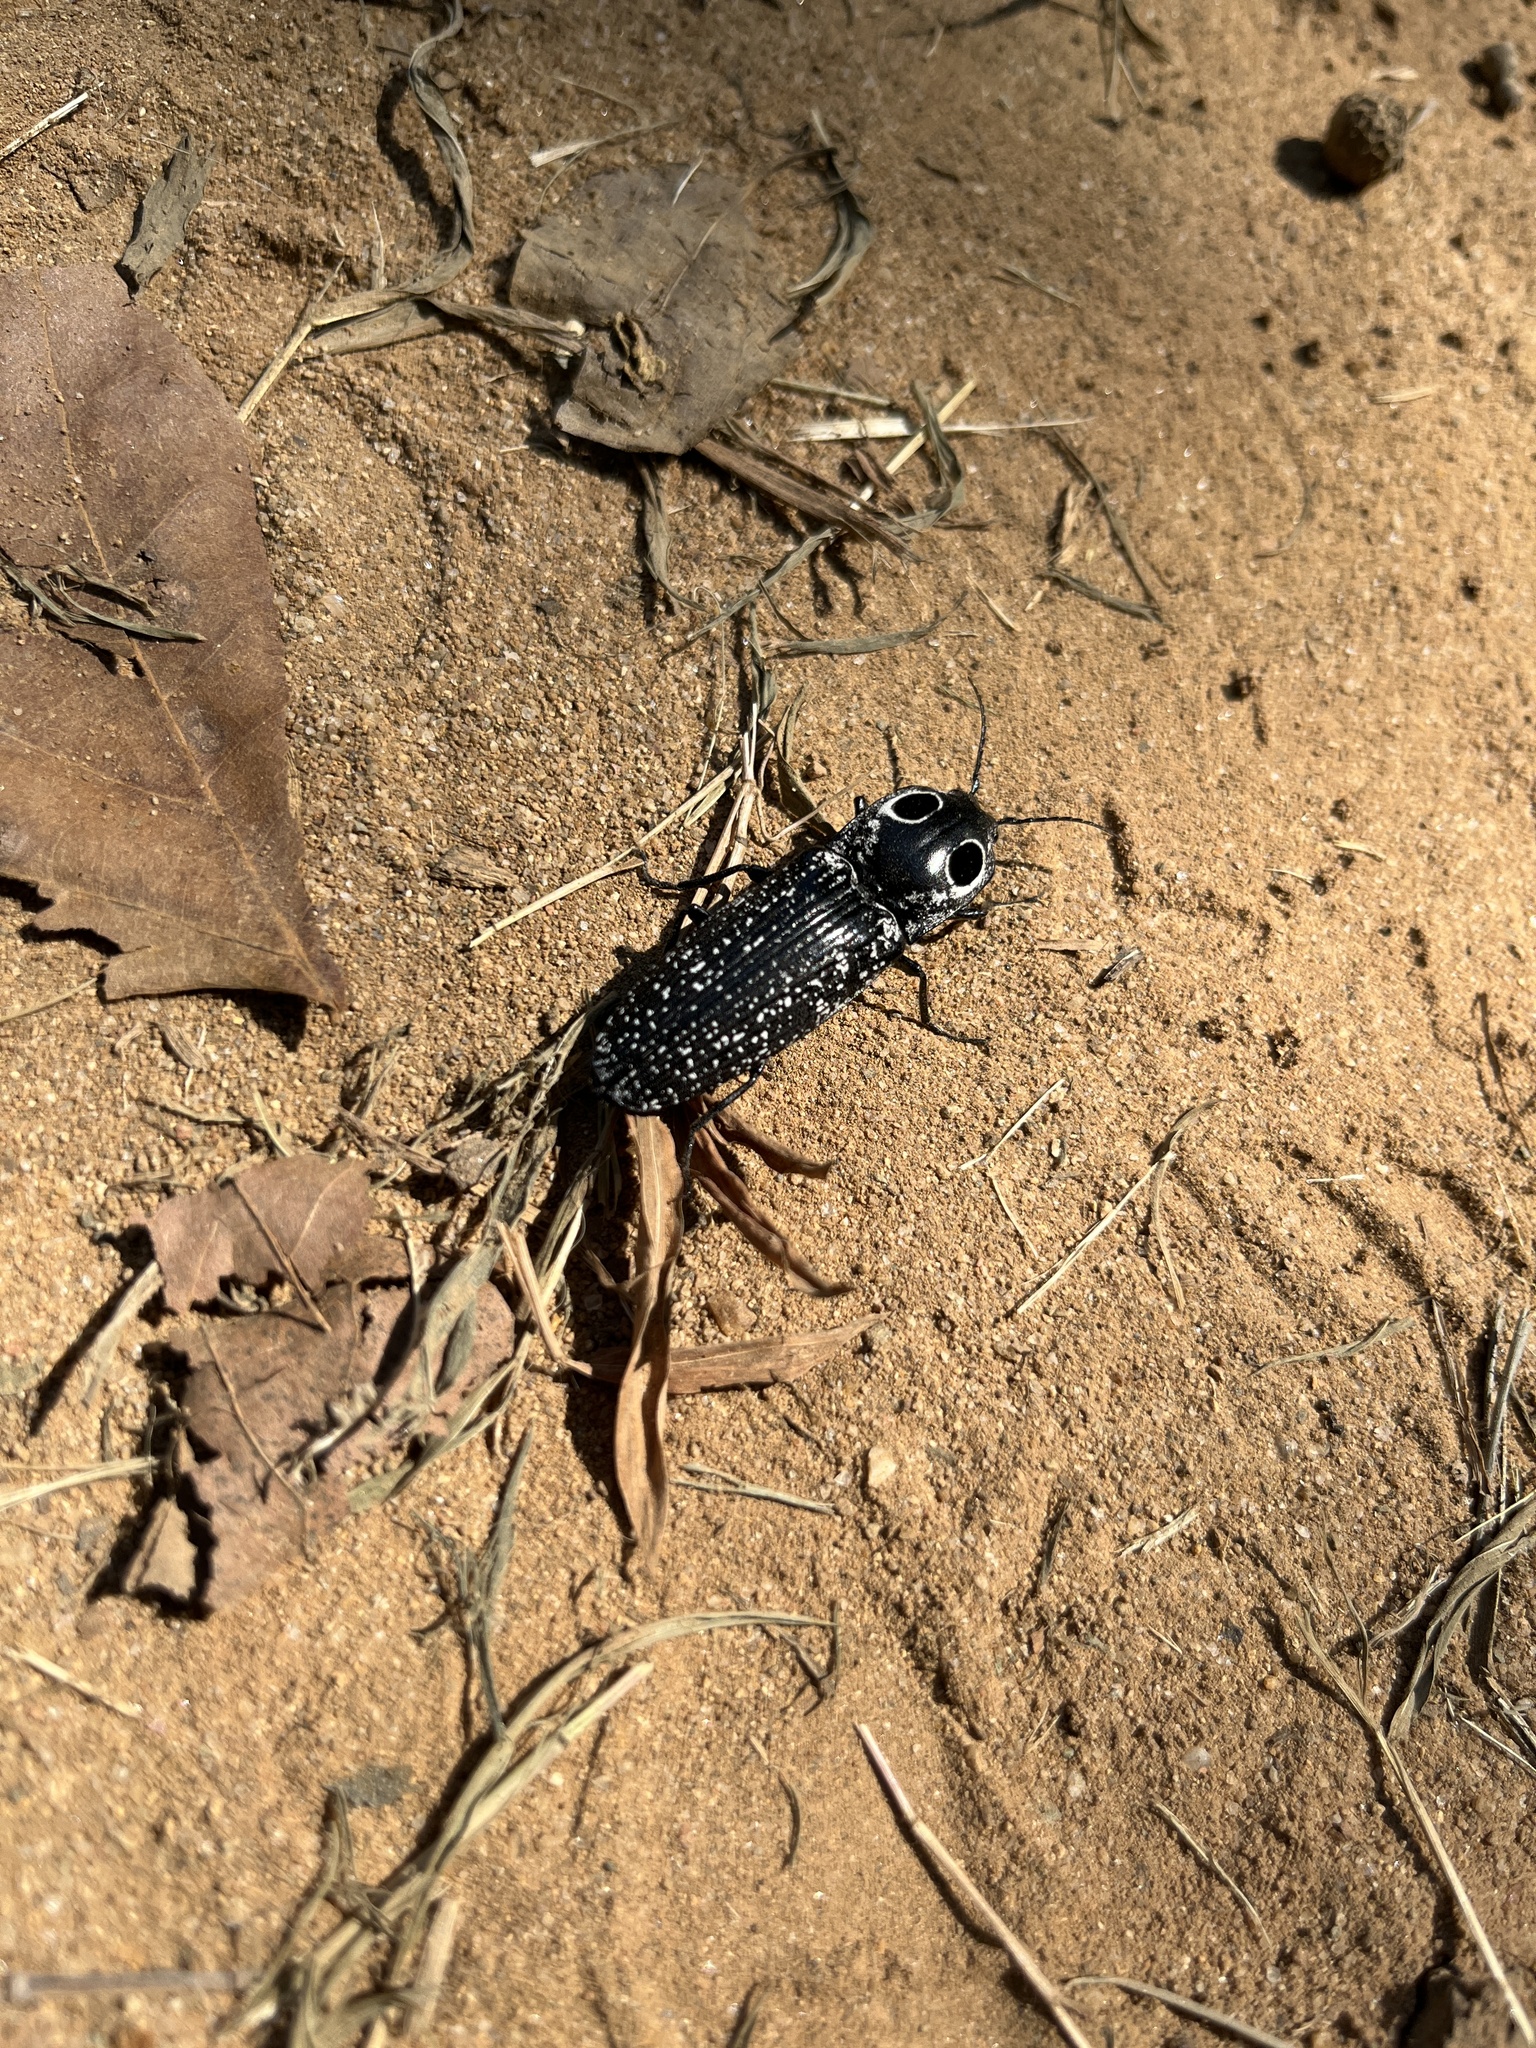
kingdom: Animalia
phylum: Arthropoda
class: Insecta
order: Coleoptera
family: Elateridae
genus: Alaus
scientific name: Alaus oculatus
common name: Eastern eyed click beetle
